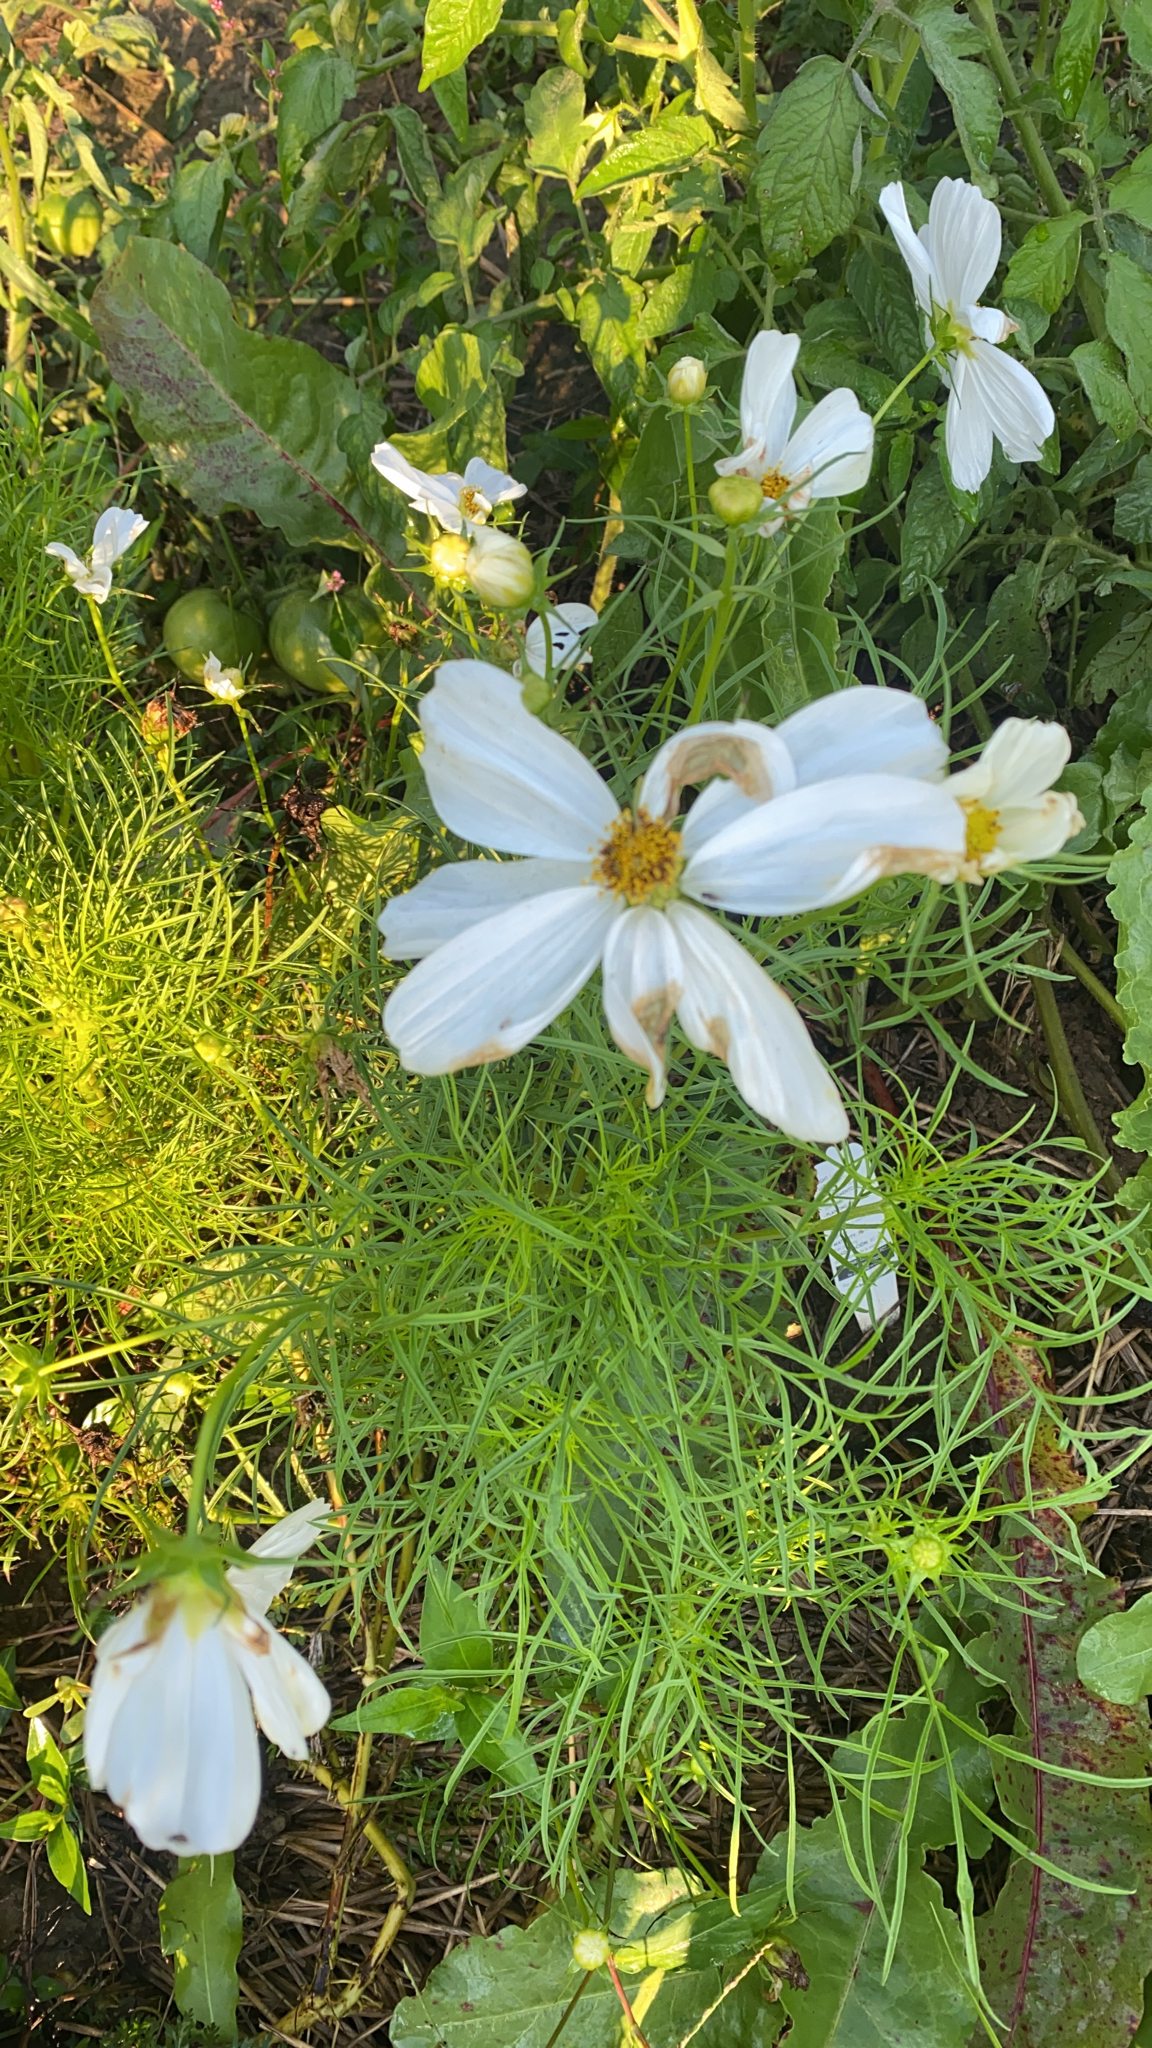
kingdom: Plantae
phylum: Tracheophyta
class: Magnoliopsida
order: Asterales
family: Asteraceae
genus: Cosmos
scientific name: Cosmos bipinnatus
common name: Garden cosmos
